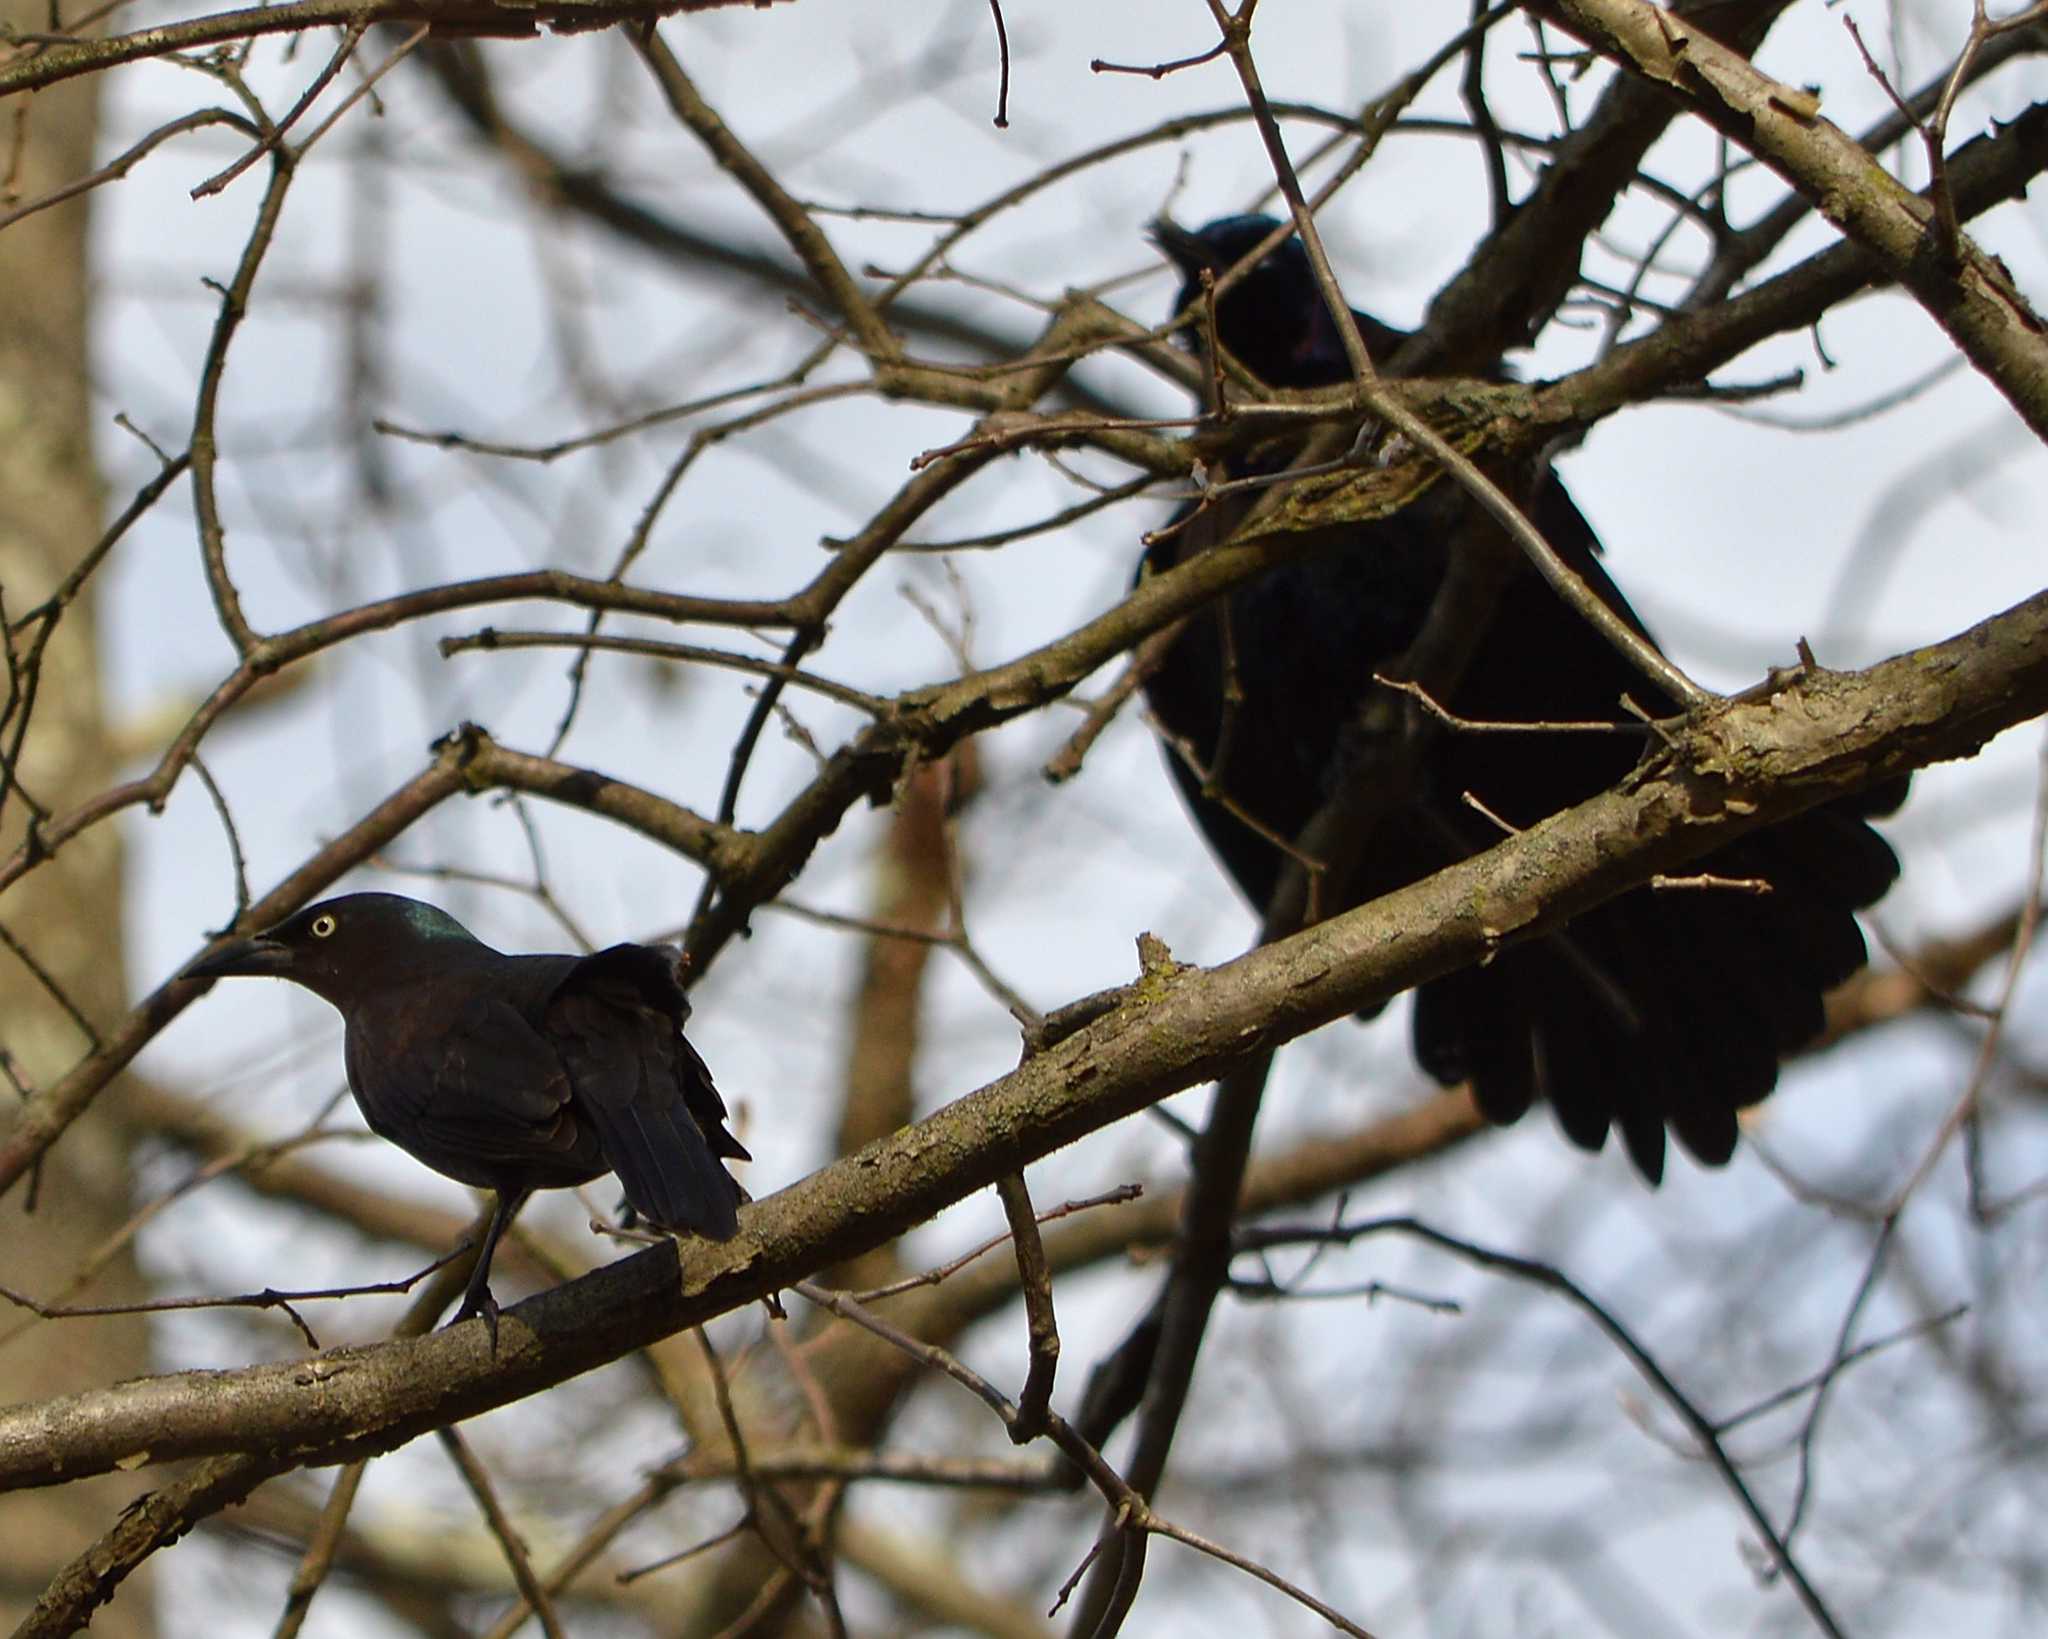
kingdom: Animalia
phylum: Chordata
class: Aves
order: Passeriformes
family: Icteridae
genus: Quiscalus
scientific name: Quiscalus quiscula
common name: Common grackle
